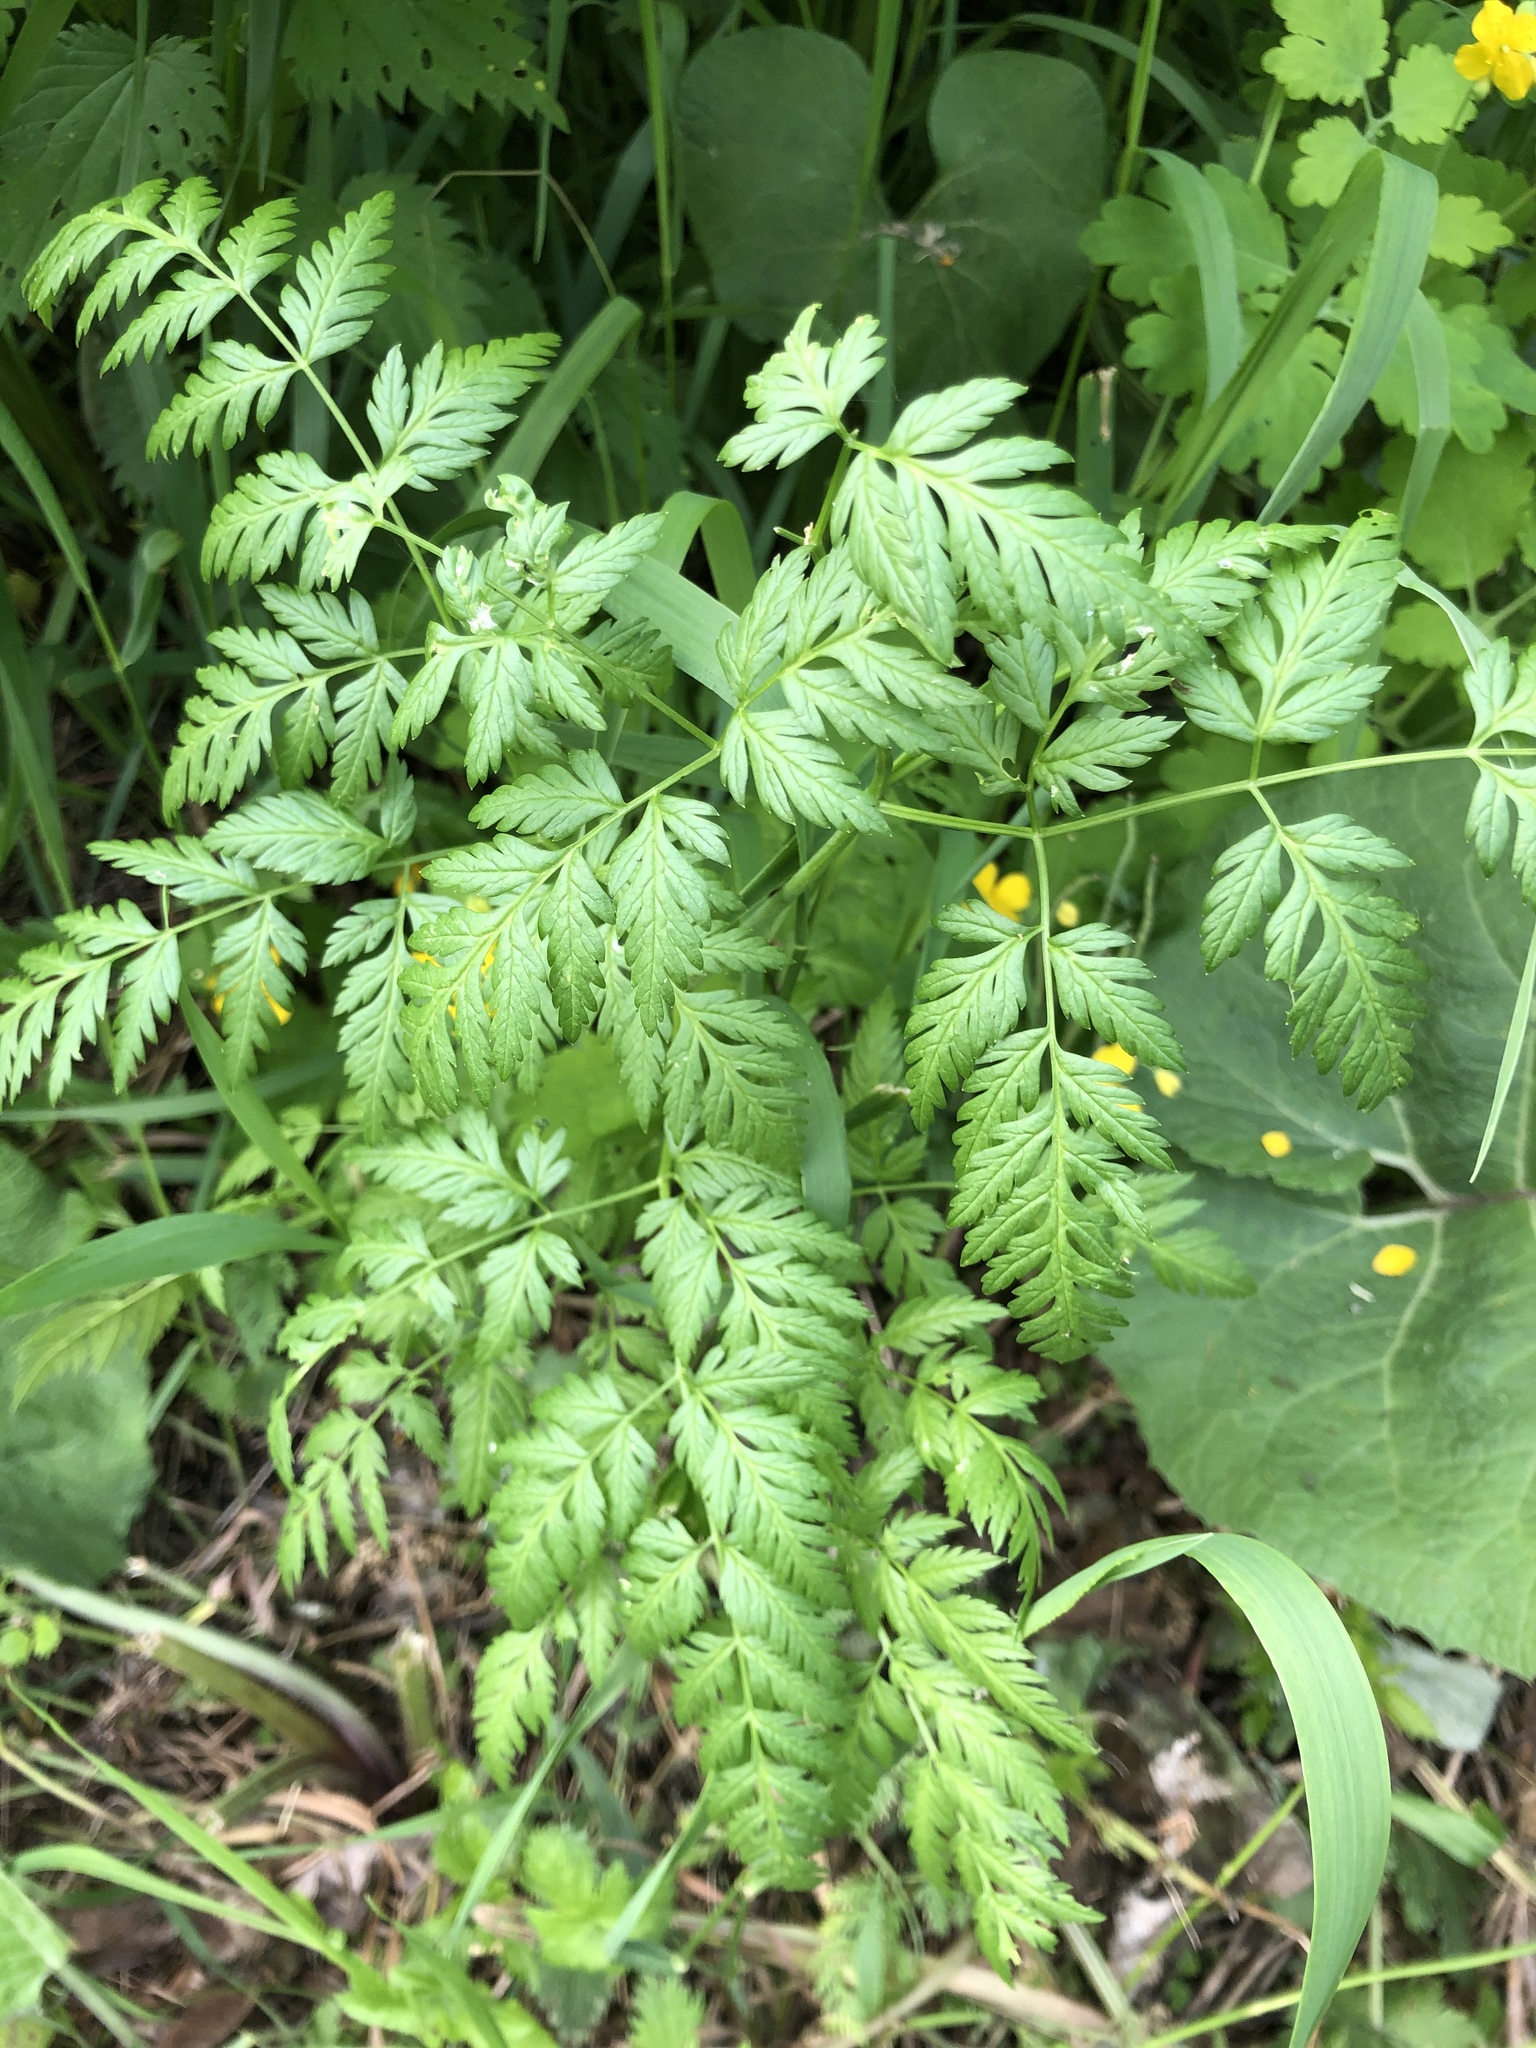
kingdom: Plantae
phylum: Tracheophyta
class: Magnoliopsida
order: Apiales
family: Apiaceae
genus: Anthriscus
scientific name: Anthriscus sylvestris
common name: Cow parsley
